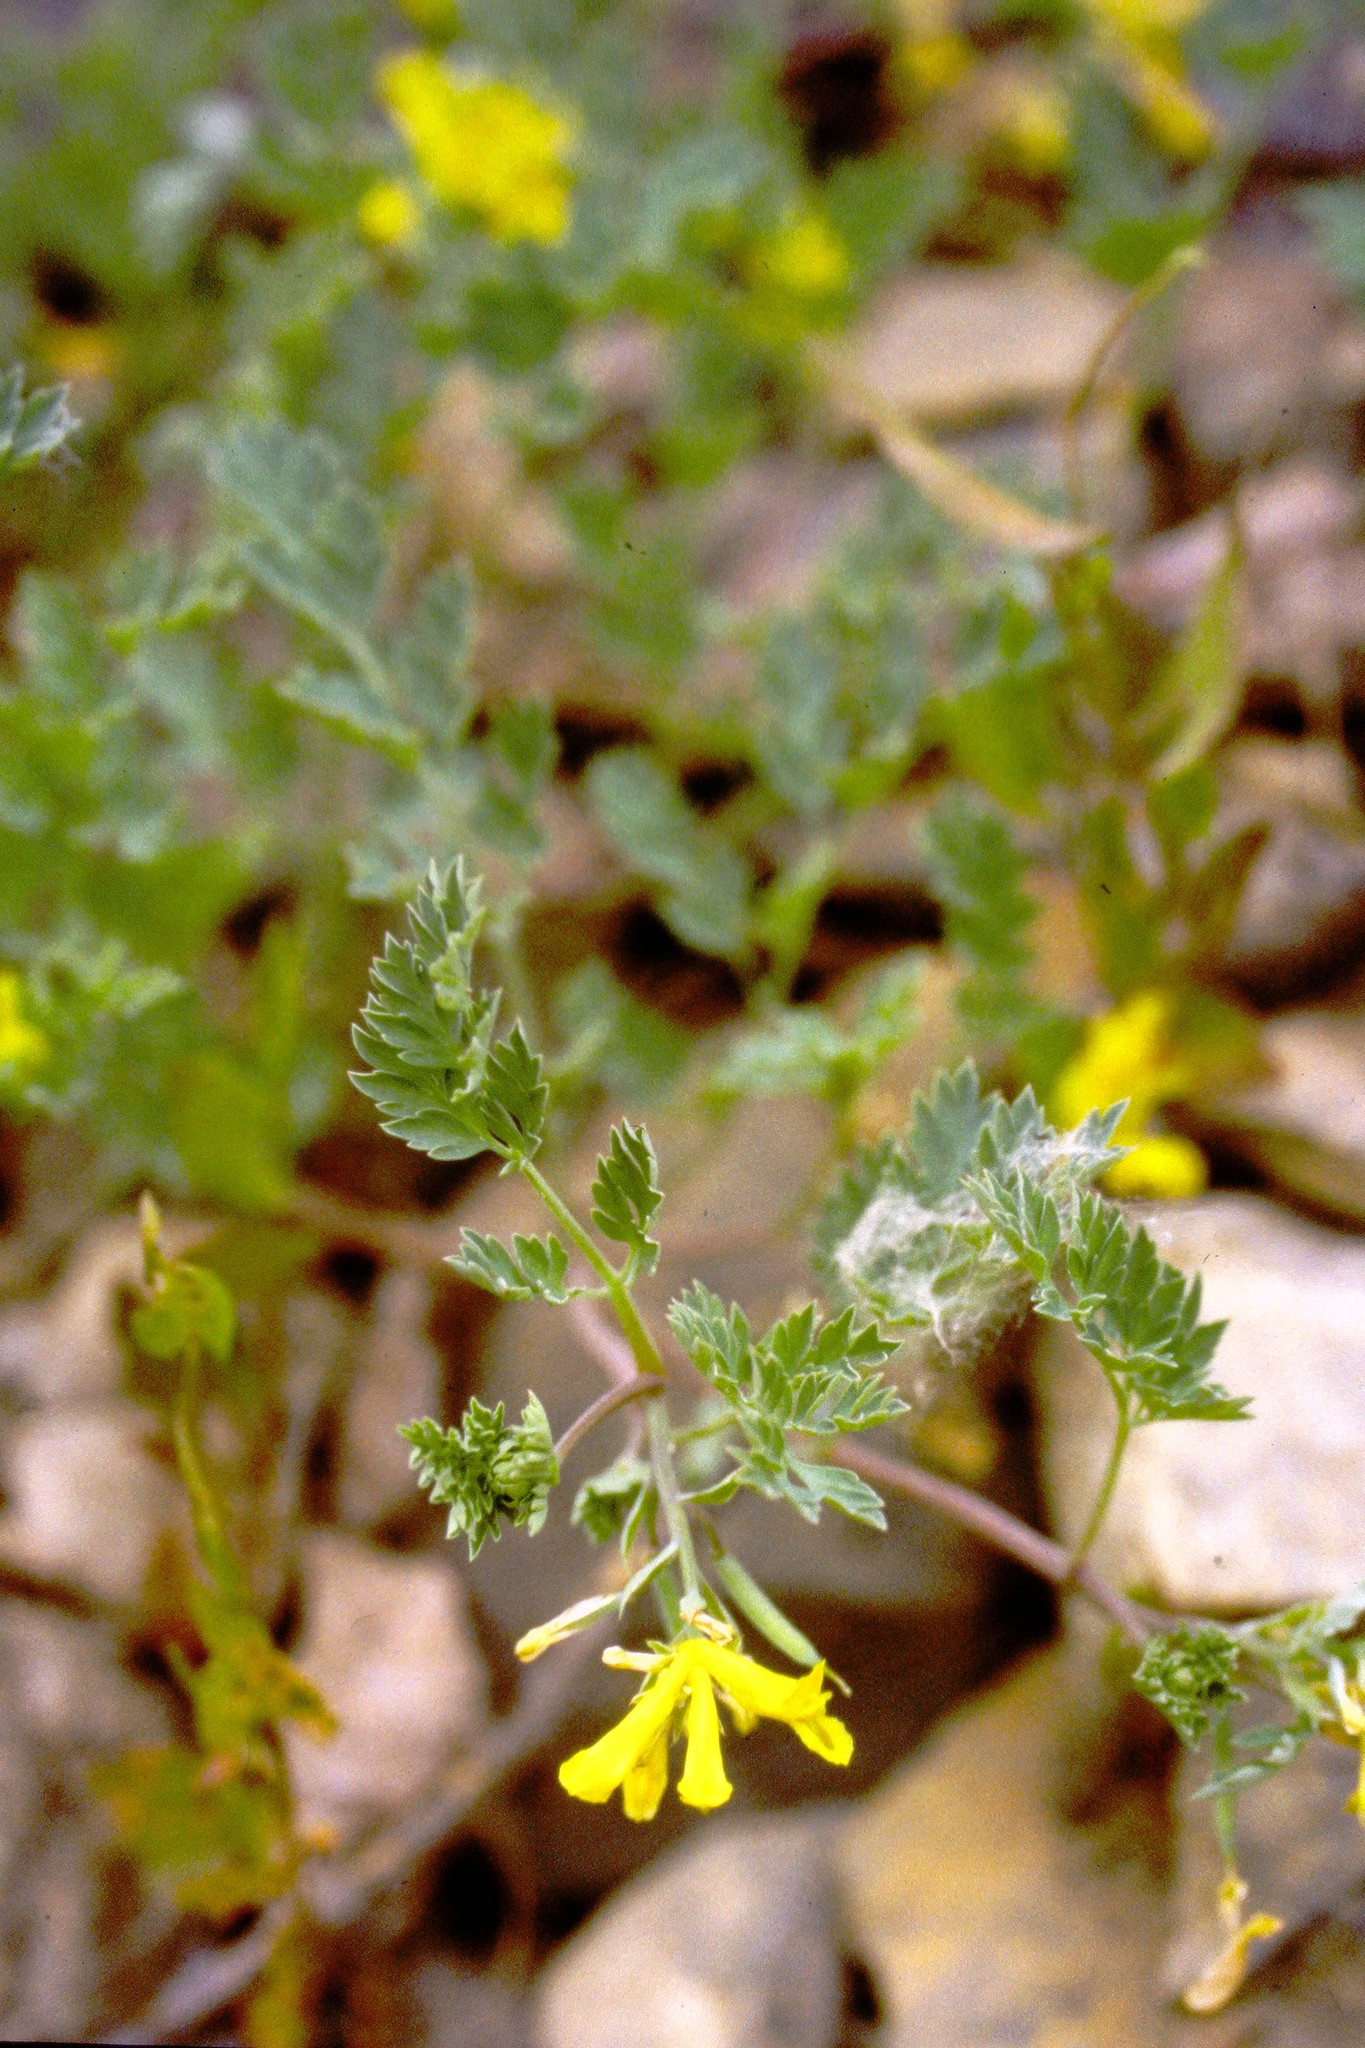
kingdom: Plantae
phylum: Tracheophyta
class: Magnoliopsida
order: Ranunculales
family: Papaveraceae
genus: Corydalis
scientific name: Corydalis aurea
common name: Golden corydalis
